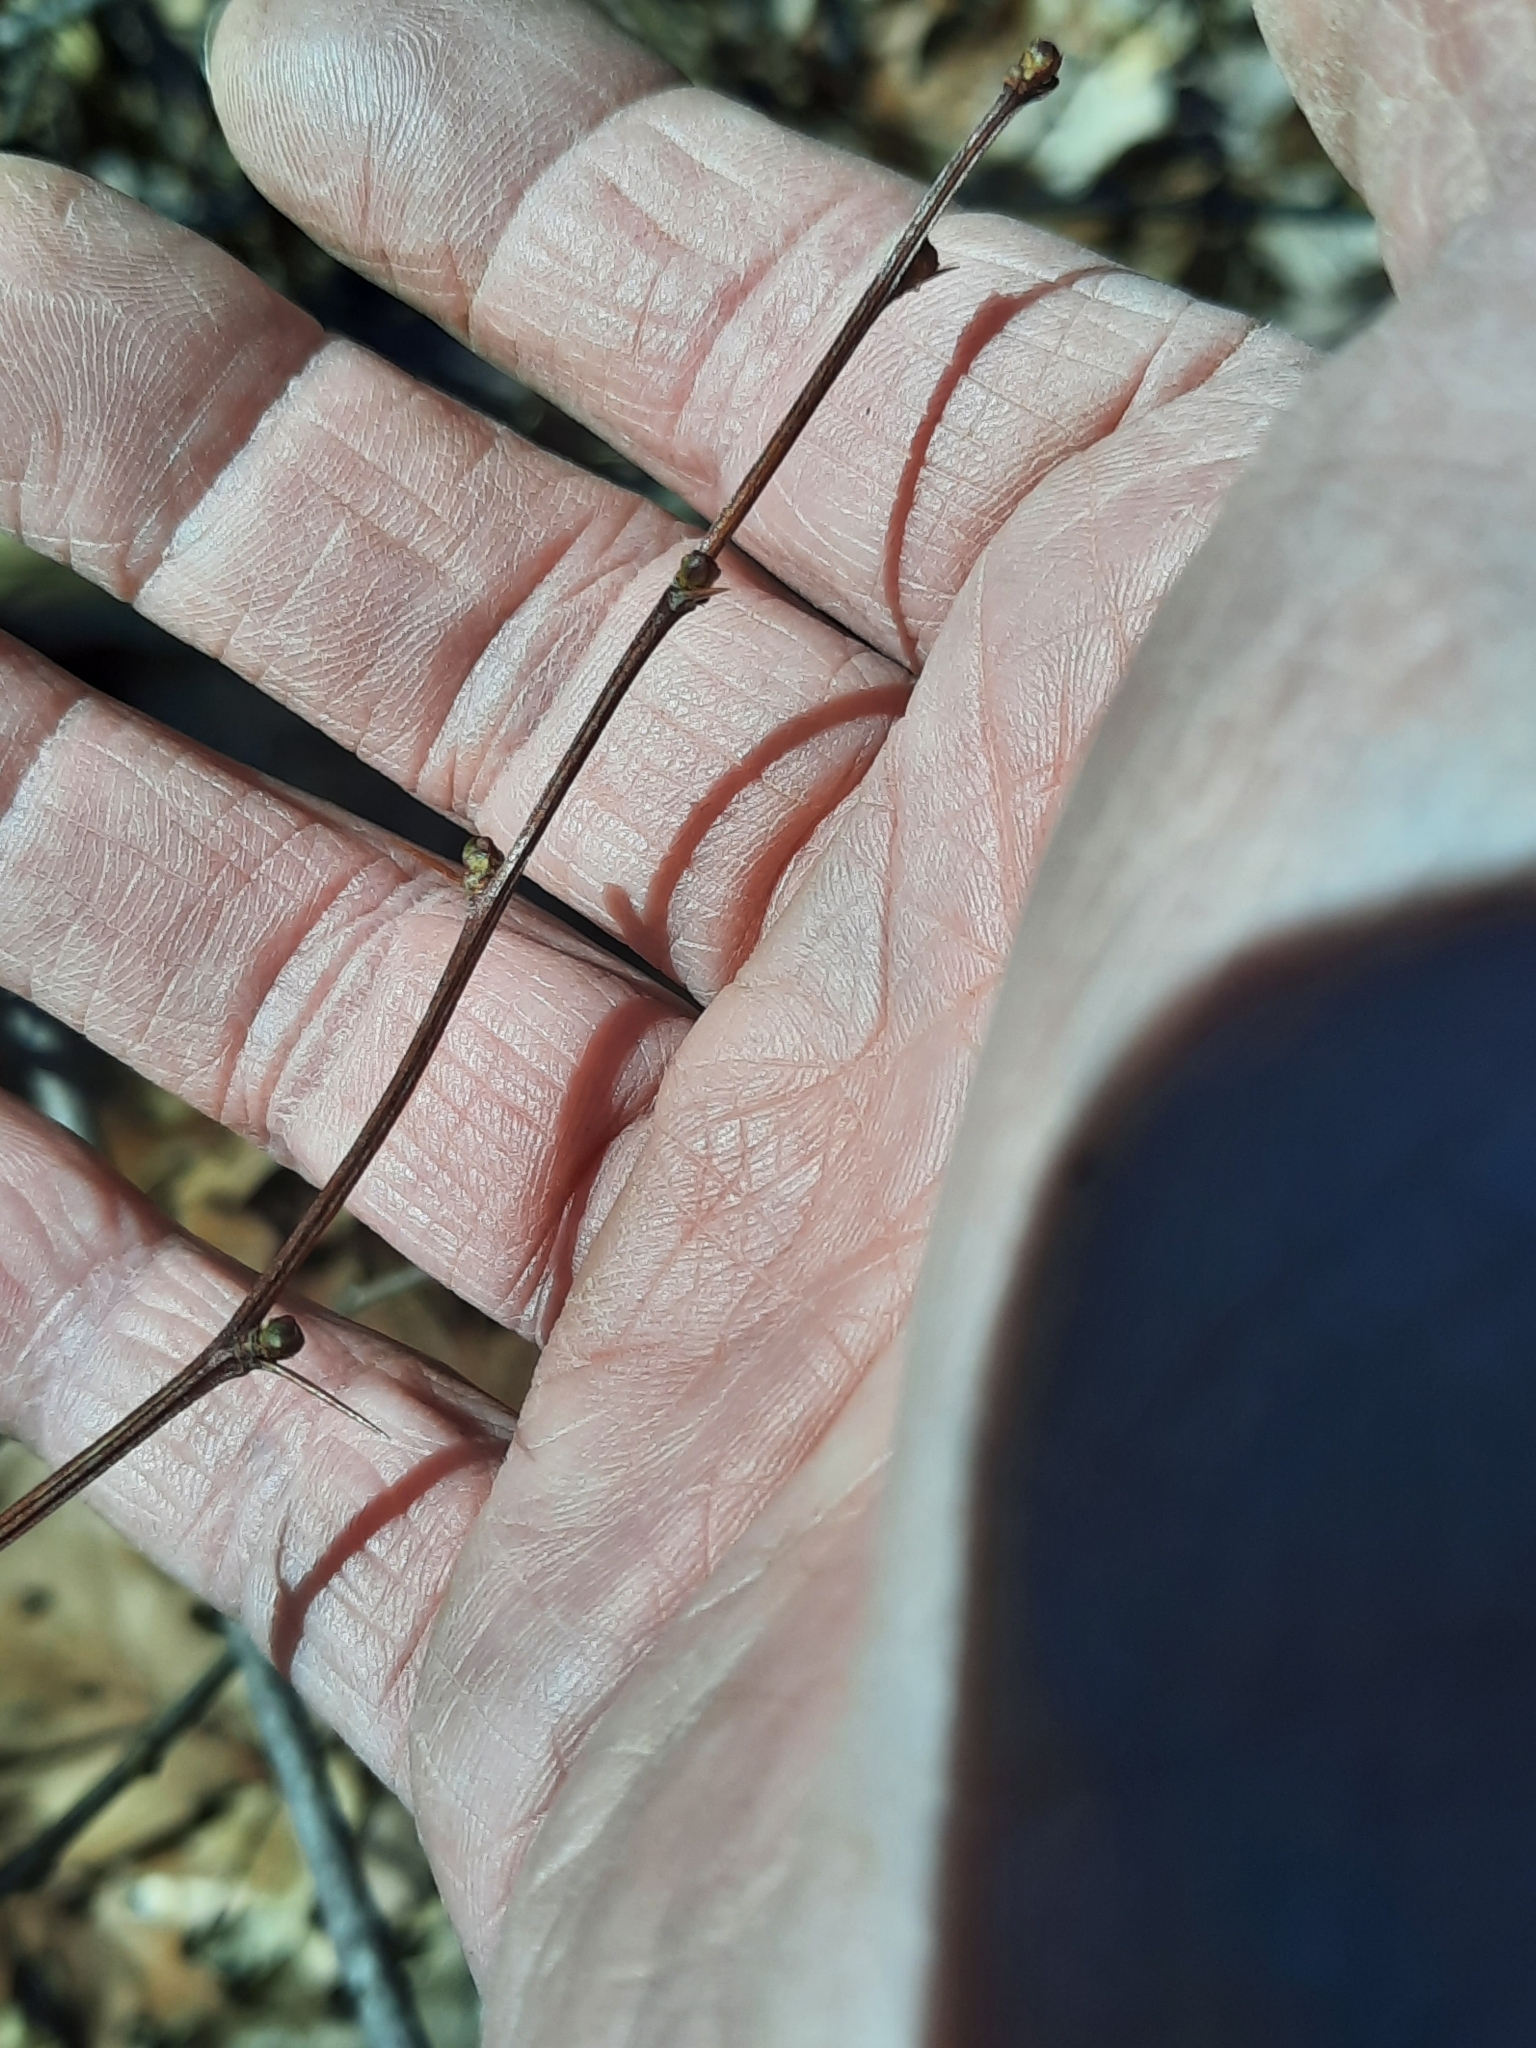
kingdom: Plantae
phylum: Tracheophyta
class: Magnoliopsida
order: Ranunculales
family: Berberidaceae
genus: Berberis
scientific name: Berberis thunbergii
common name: Japanese barberry
